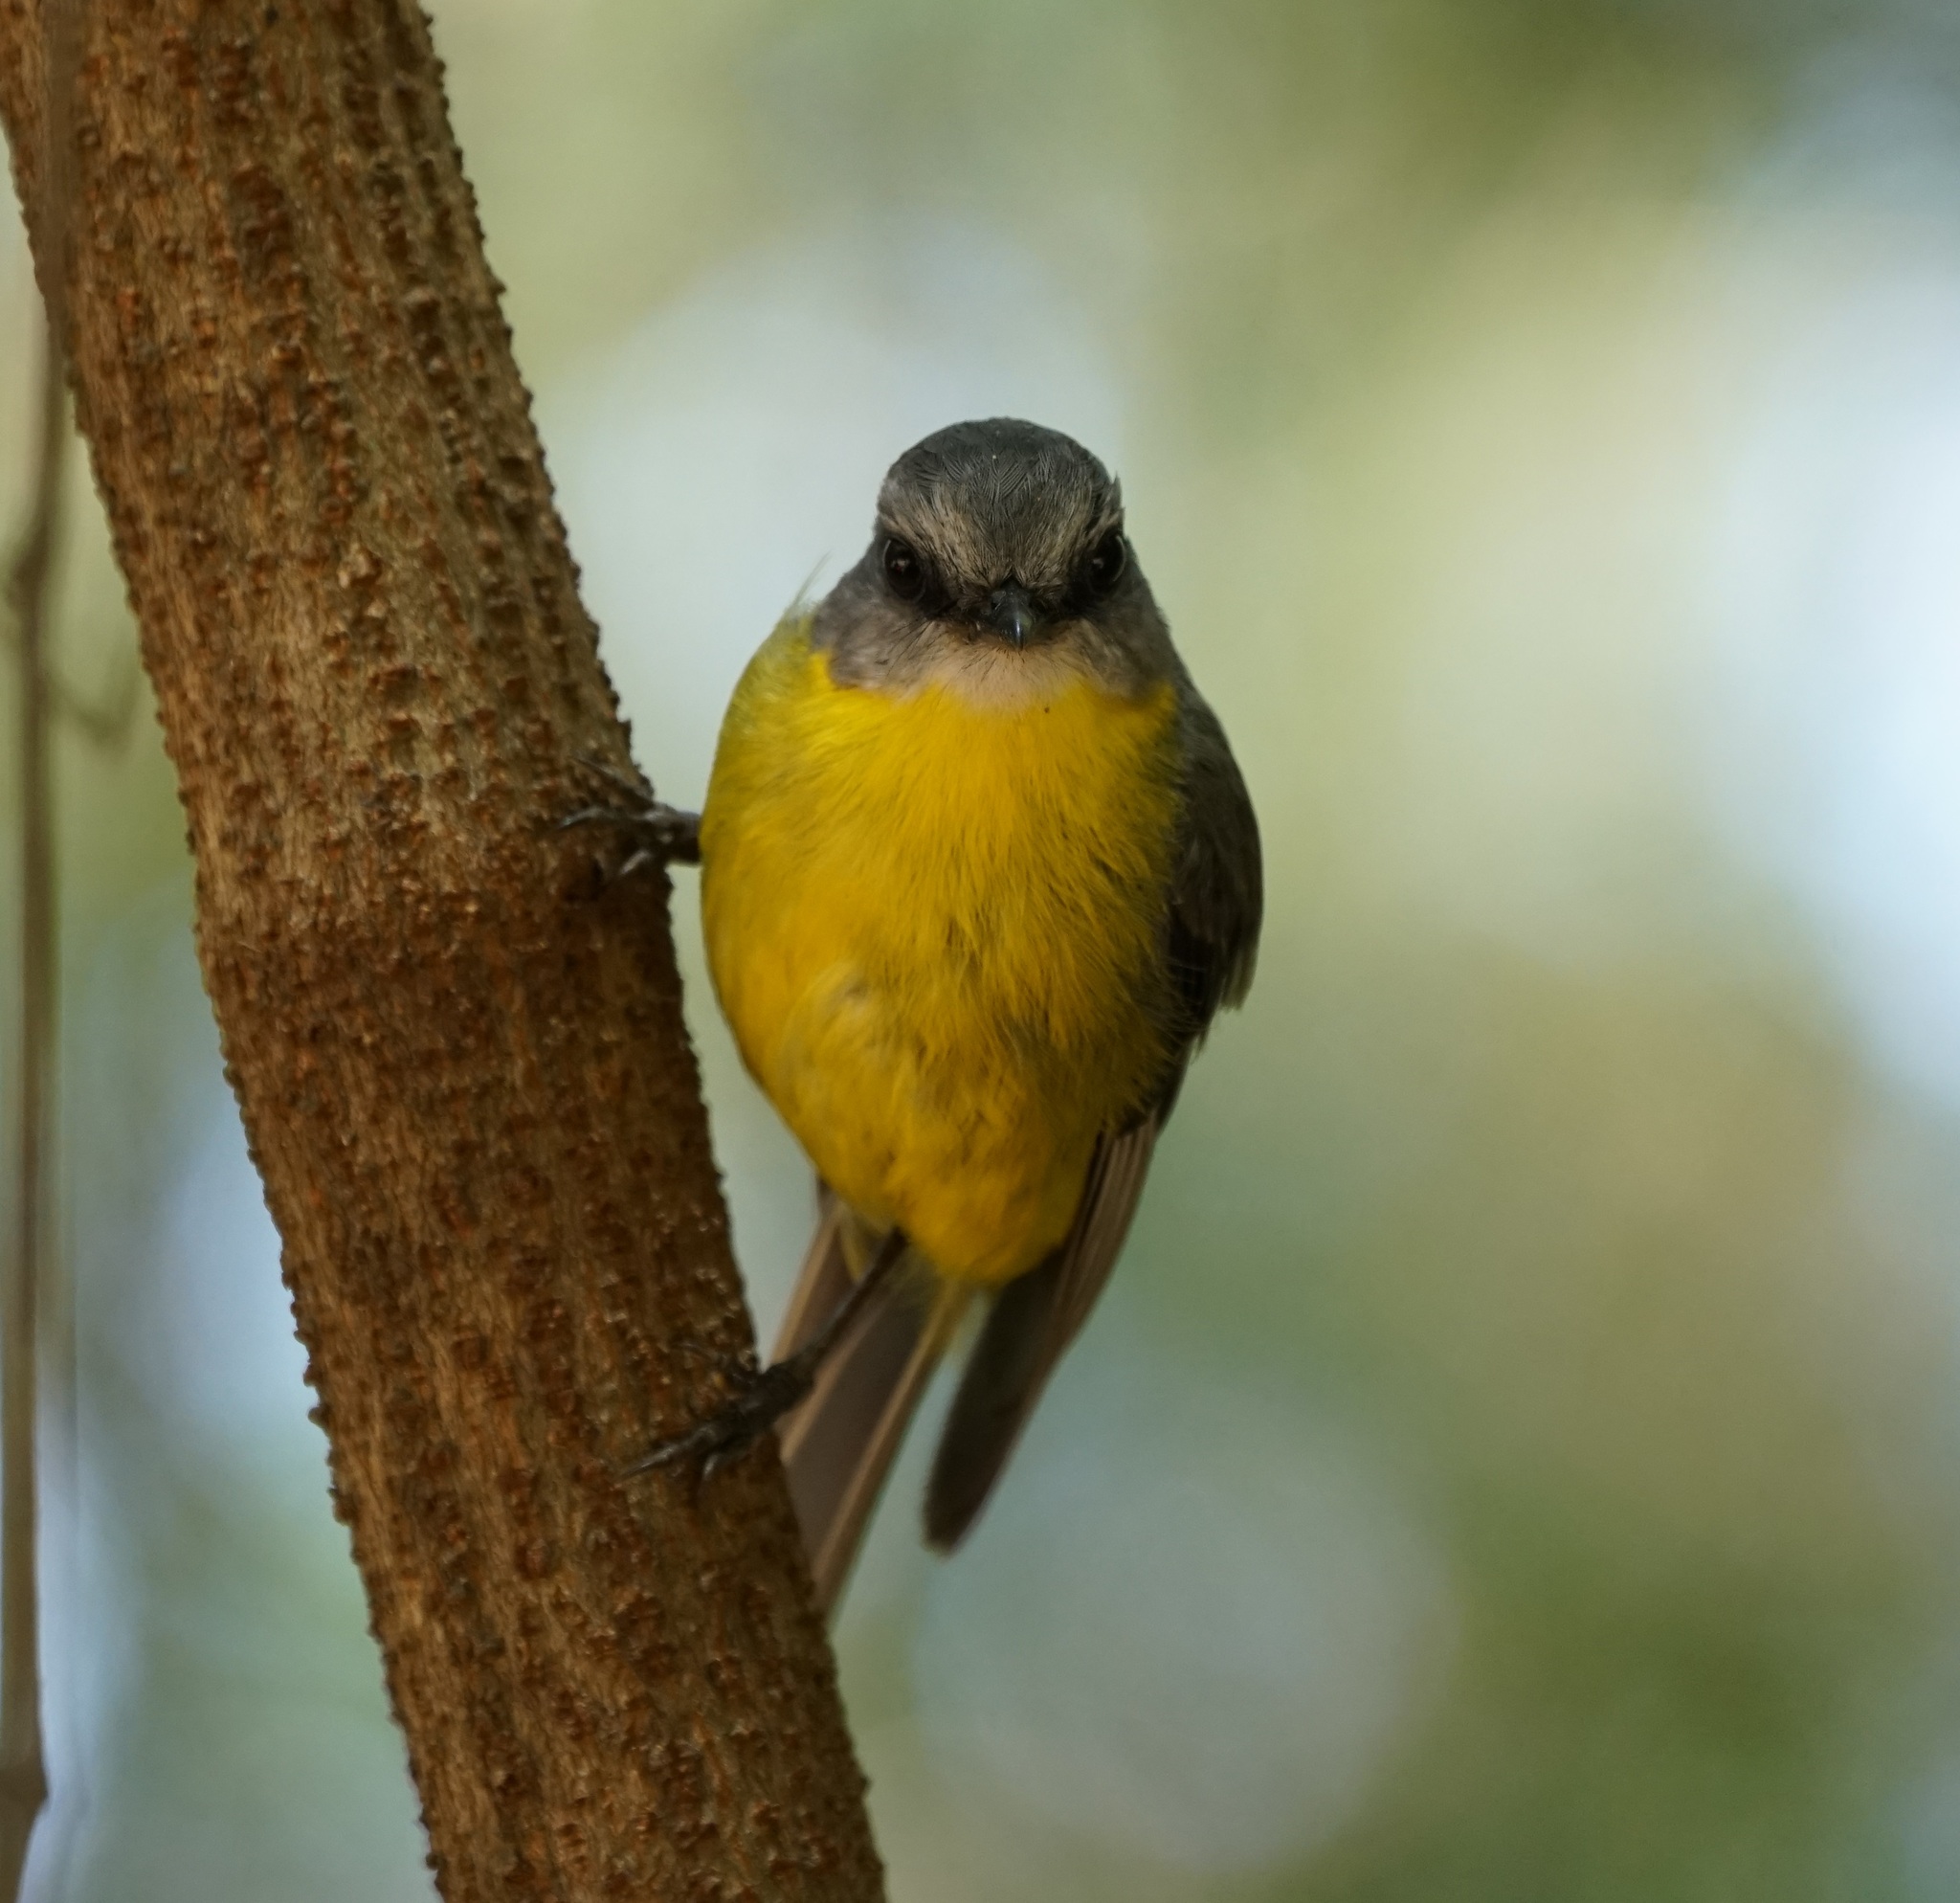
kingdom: Animalia
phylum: Chordata
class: Aves
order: Passeriformes
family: Petroicidae
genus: Eopsaltria
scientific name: Eopsaltria australis
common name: Eastern yellow robin
